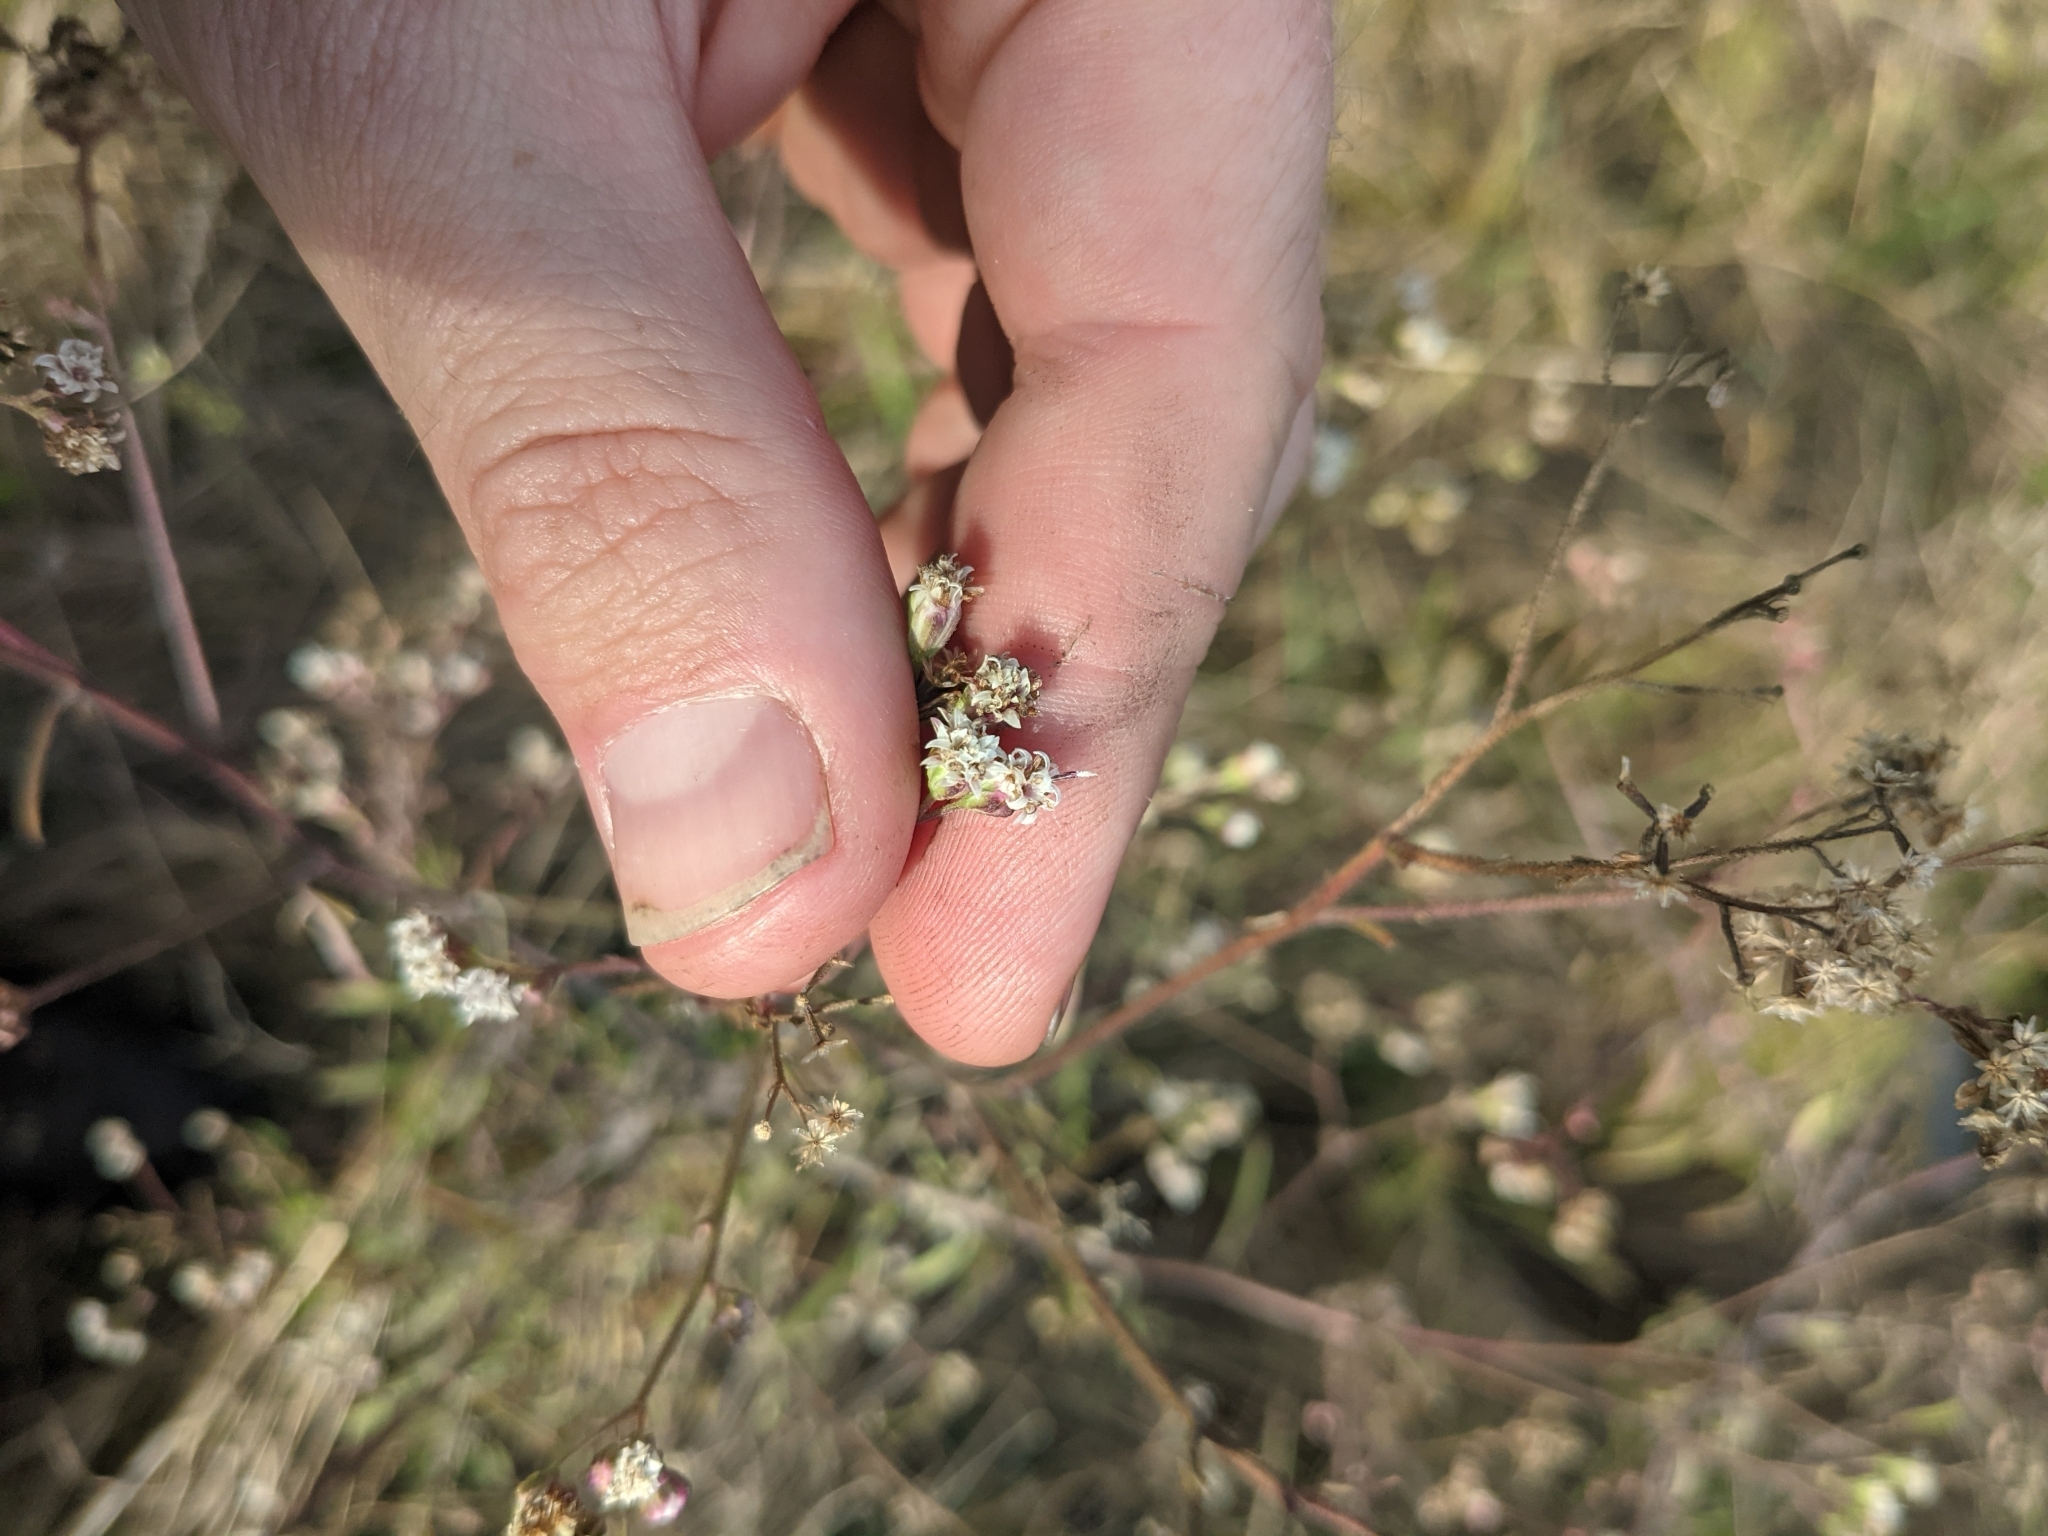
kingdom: Plantae
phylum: Tracheophyta
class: Magnoliopsida
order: Asterales
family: Asteraceae
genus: Florestina
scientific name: Florestina tripteris
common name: Sticky florestina
